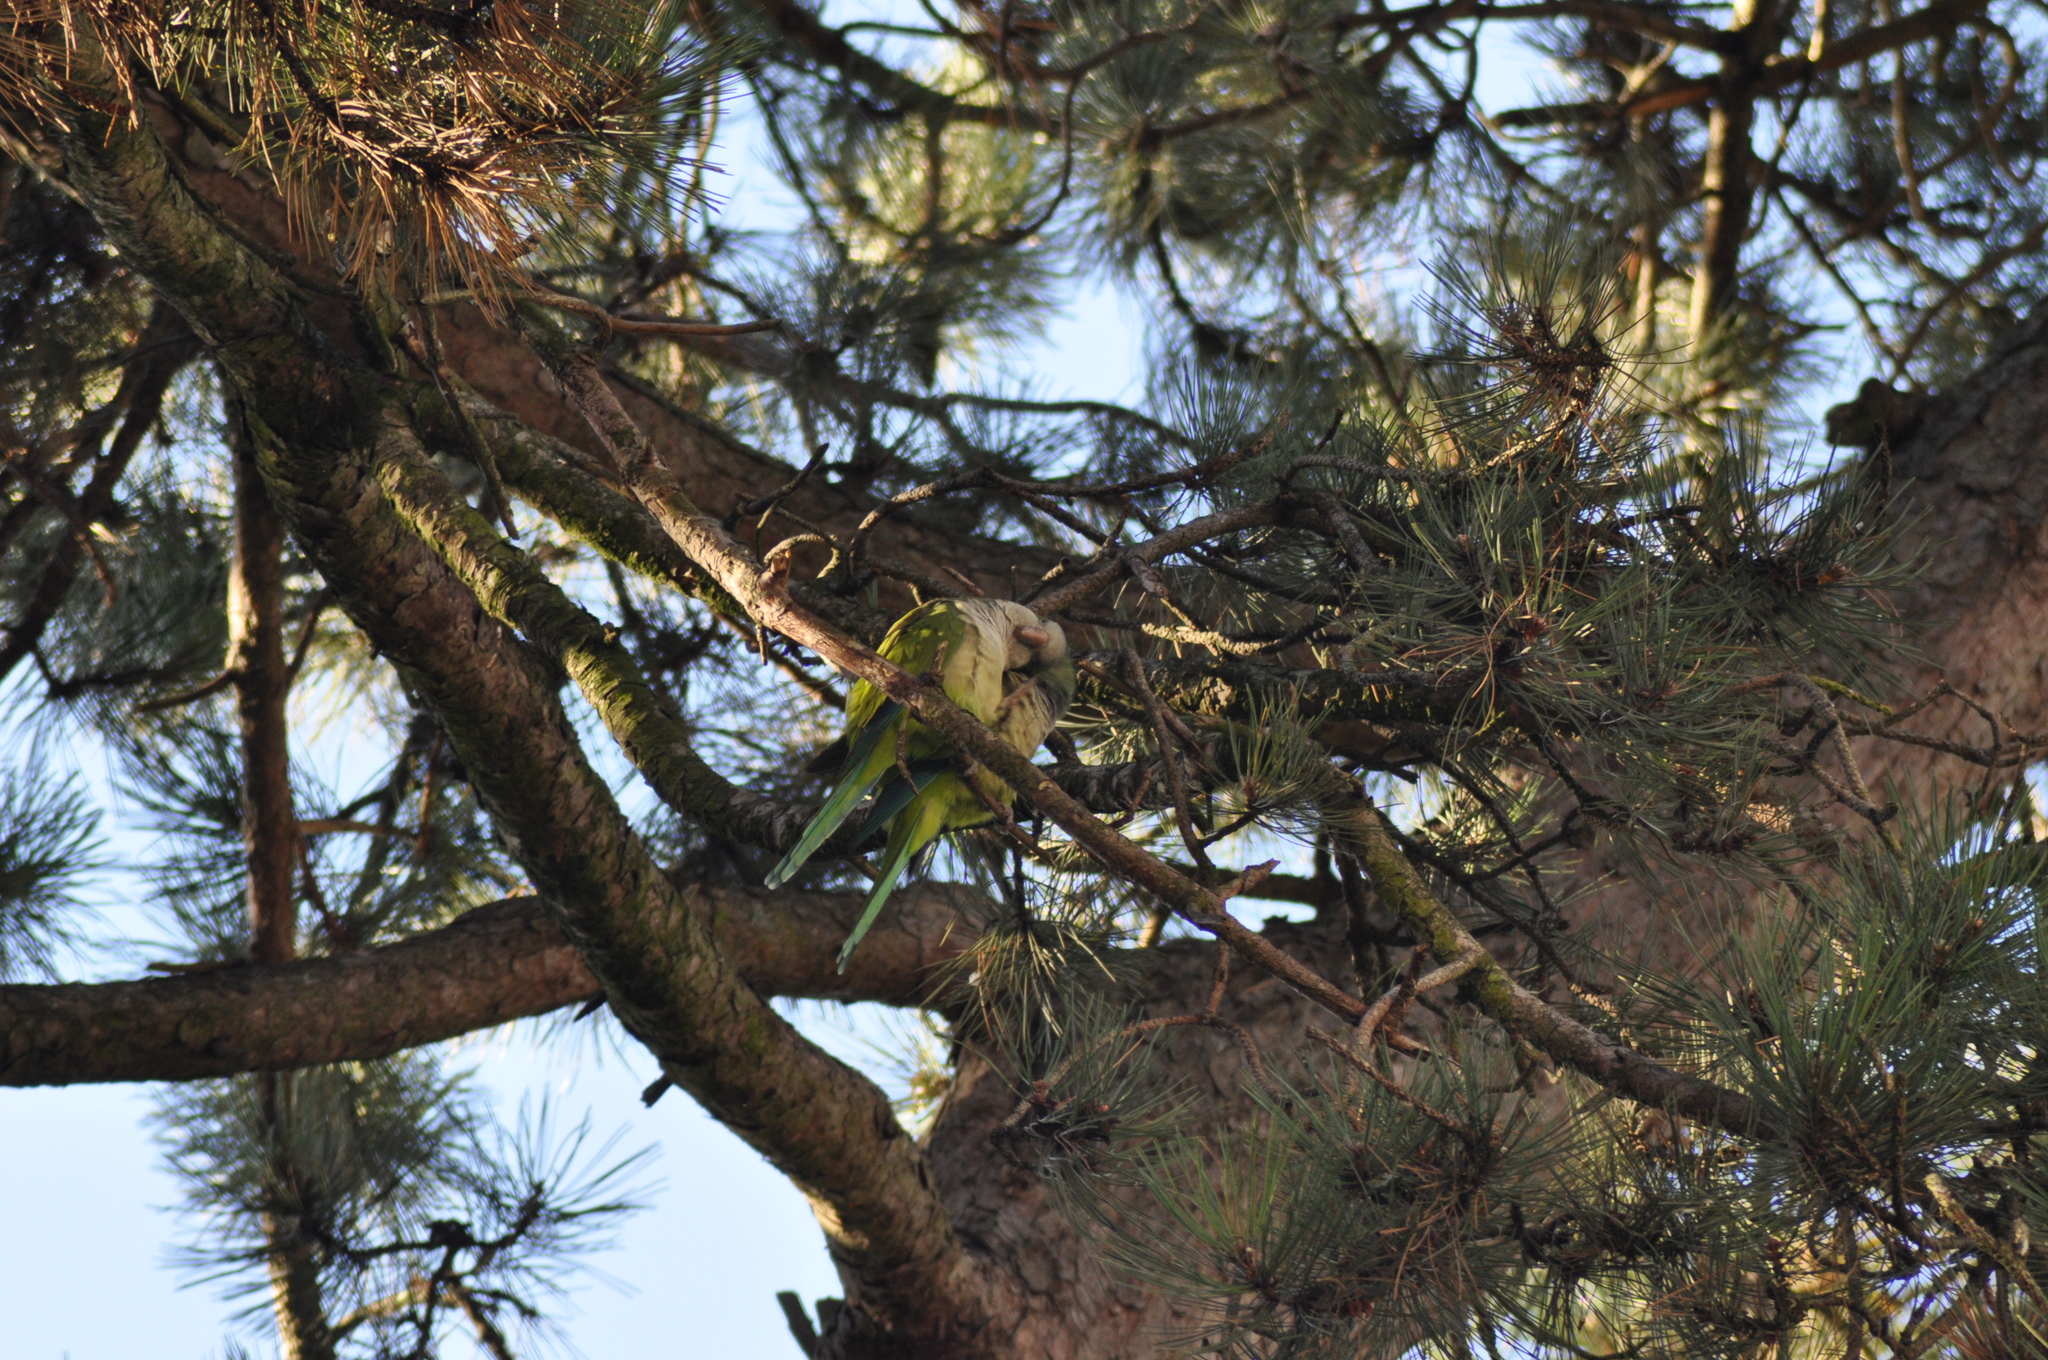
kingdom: Animalia
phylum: Chordata
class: Aves
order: Psittaciformes
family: Psittacidae
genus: Myiopsitta
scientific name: Myiopsitta monachus
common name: Monk parakeet
